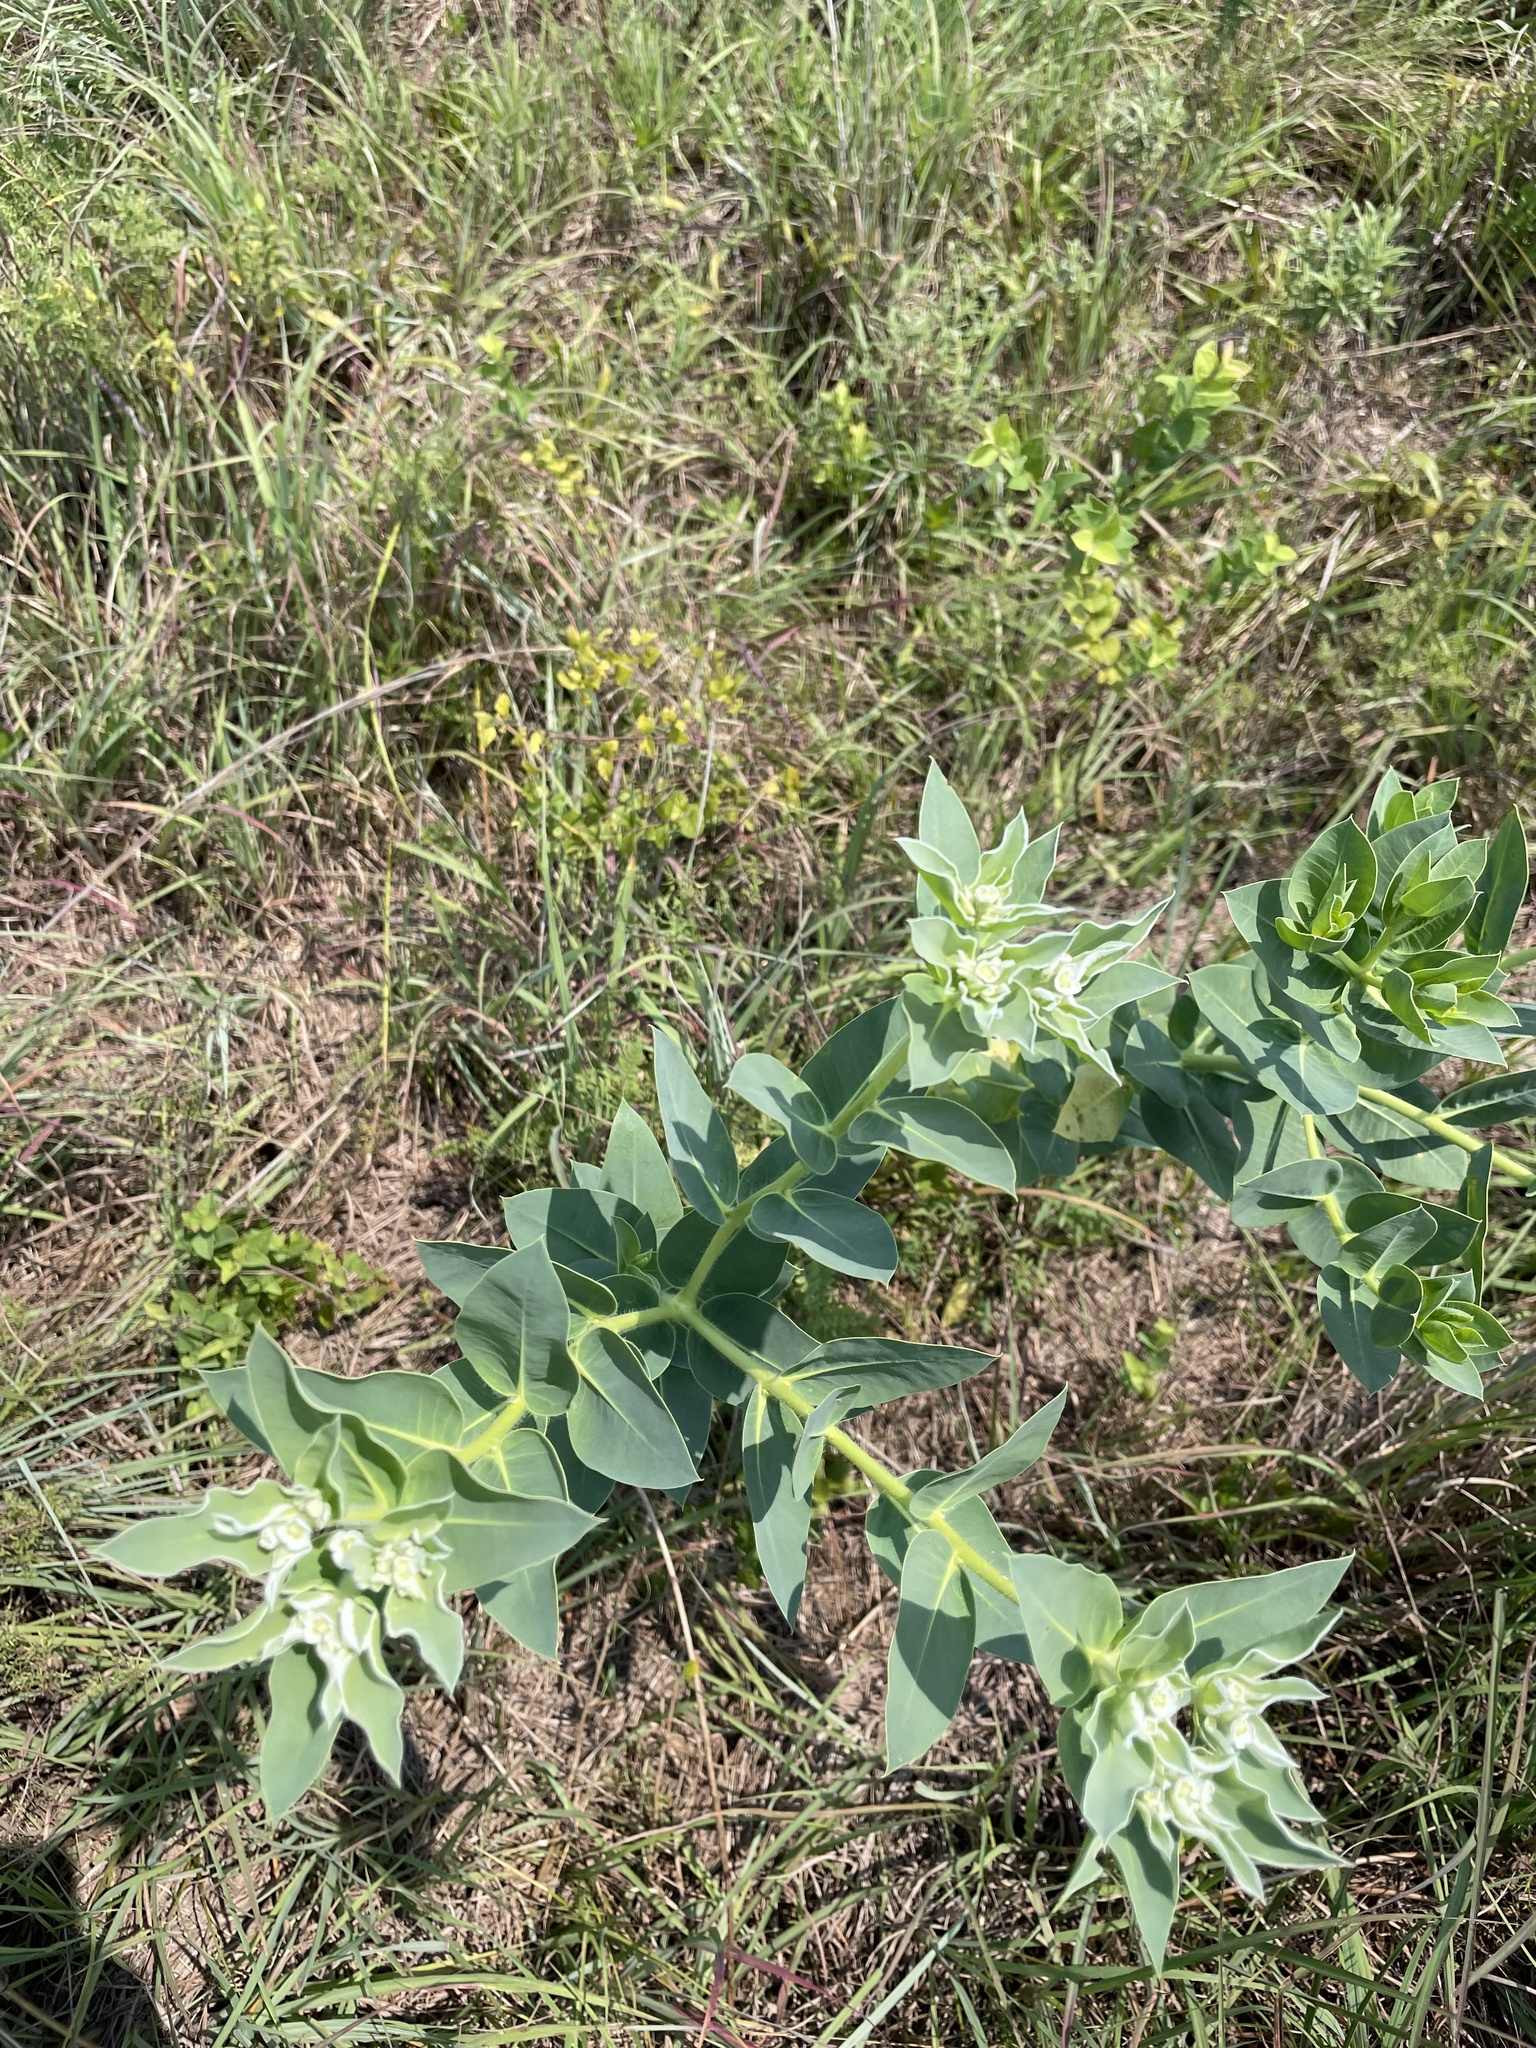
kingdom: Plantae
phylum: Tracheophyta
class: Magnoliopsida
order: Malpighiales
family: Euphorbiaceae
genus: Euphorbia
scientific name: Euphorbia marginata
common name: Ghostweed
